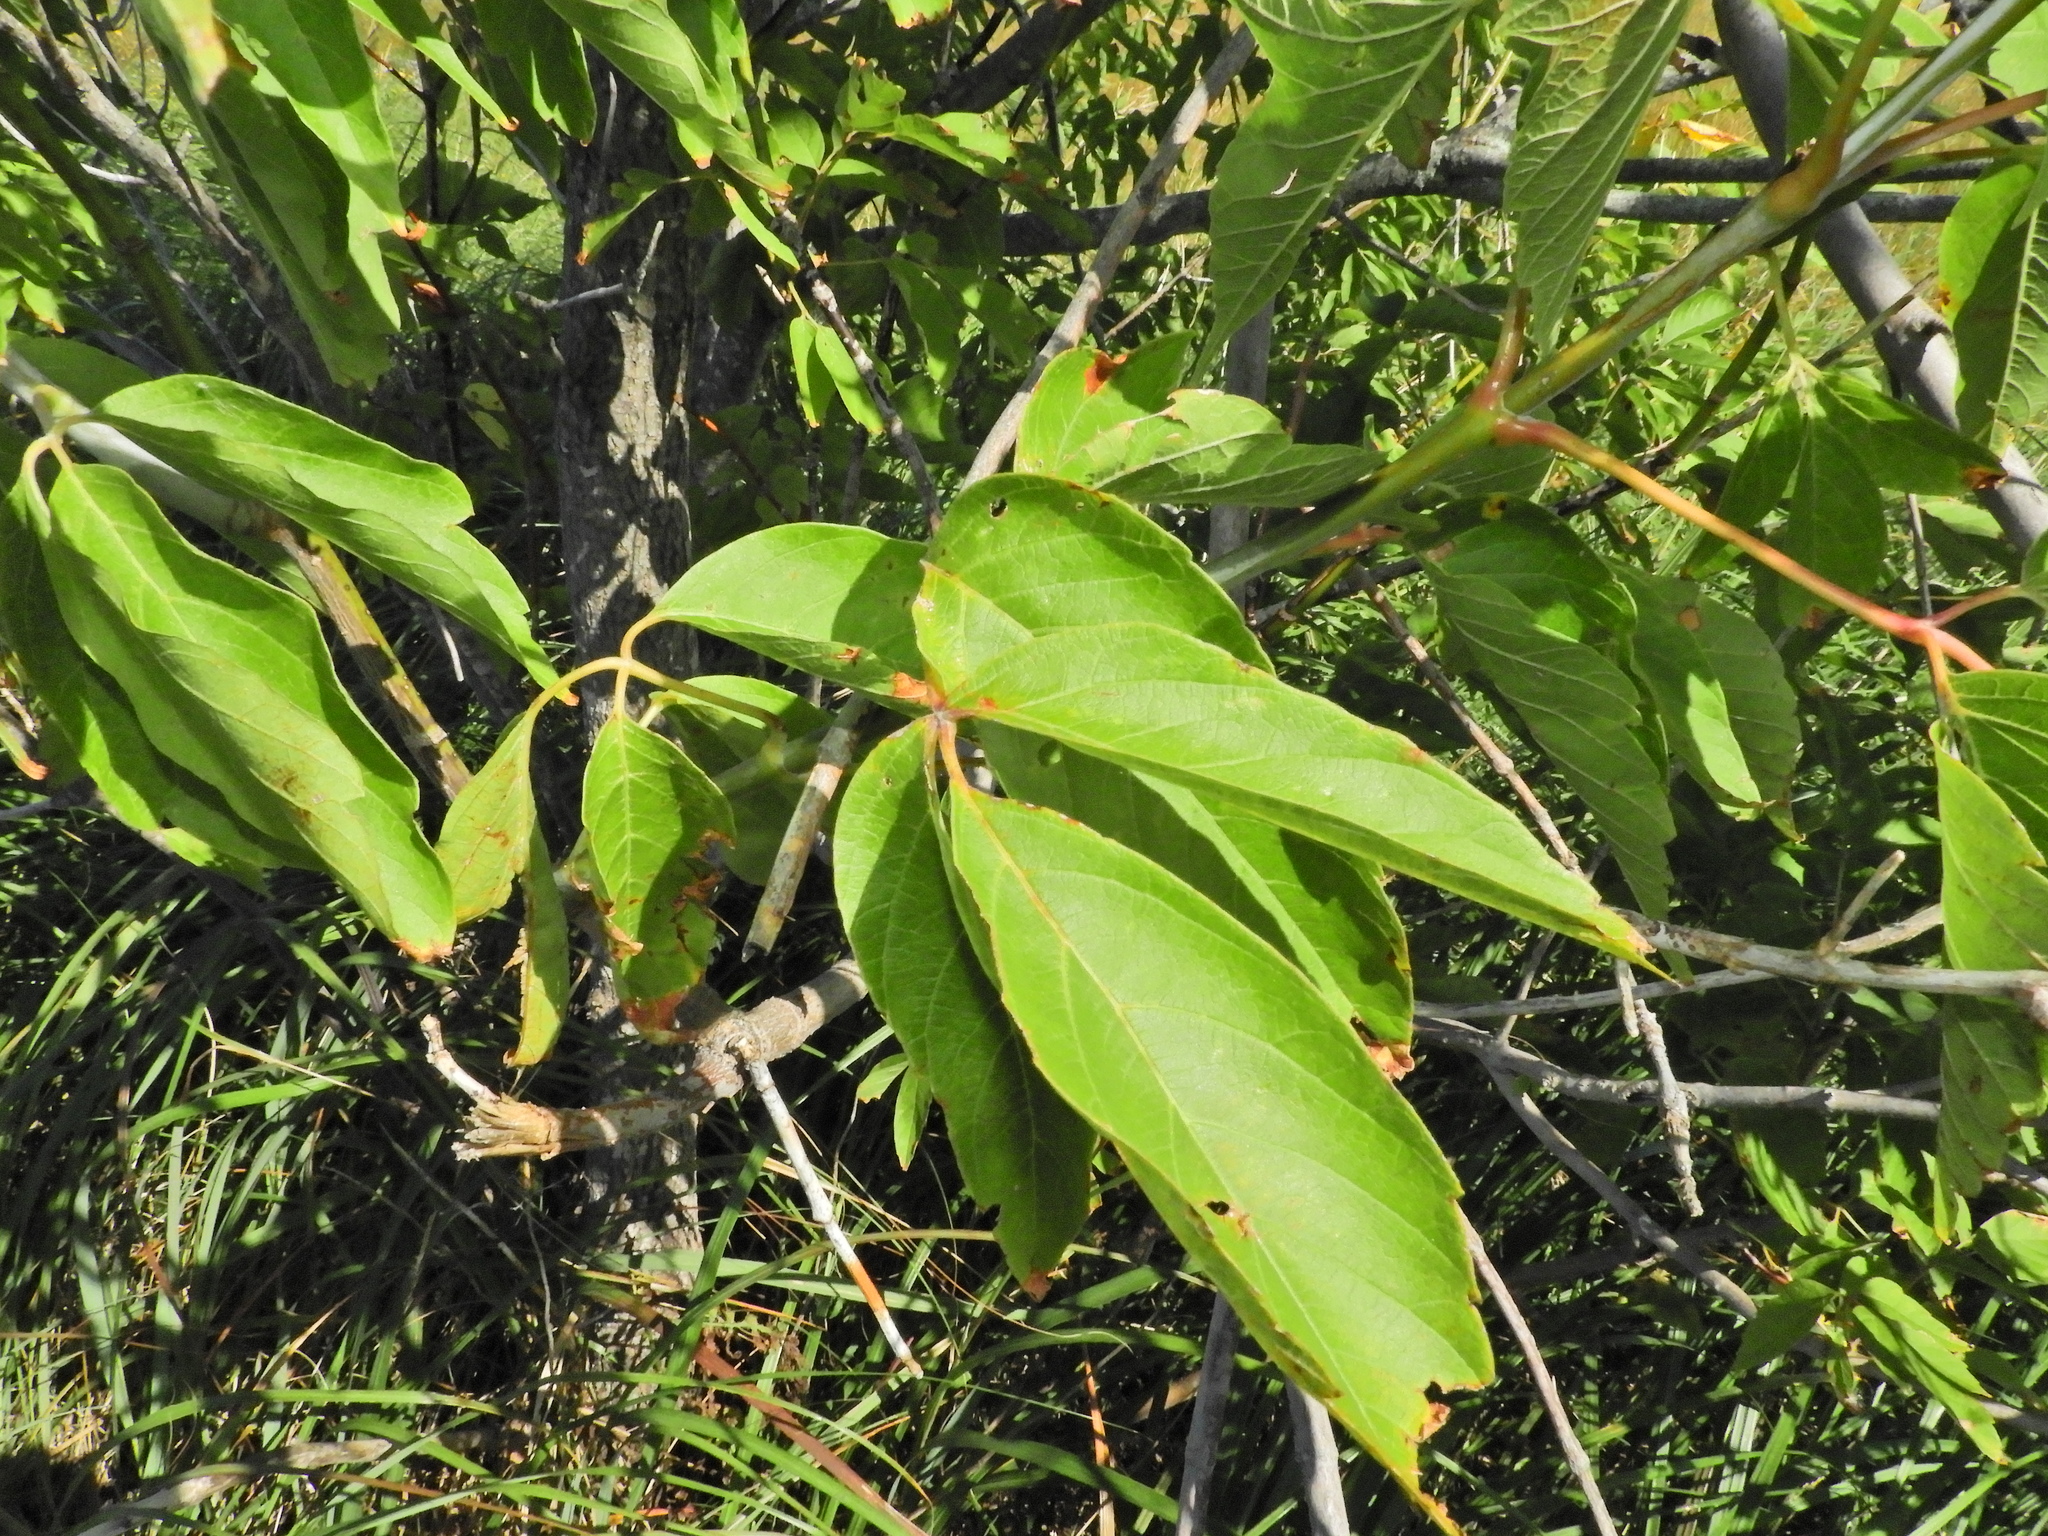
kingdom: Plantae
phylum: Tracheophyta
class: Magnoliopsida
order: Sapindales
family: Sapindaceae
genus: Acer
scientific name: Acer negundo
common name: Ashleaf maple
